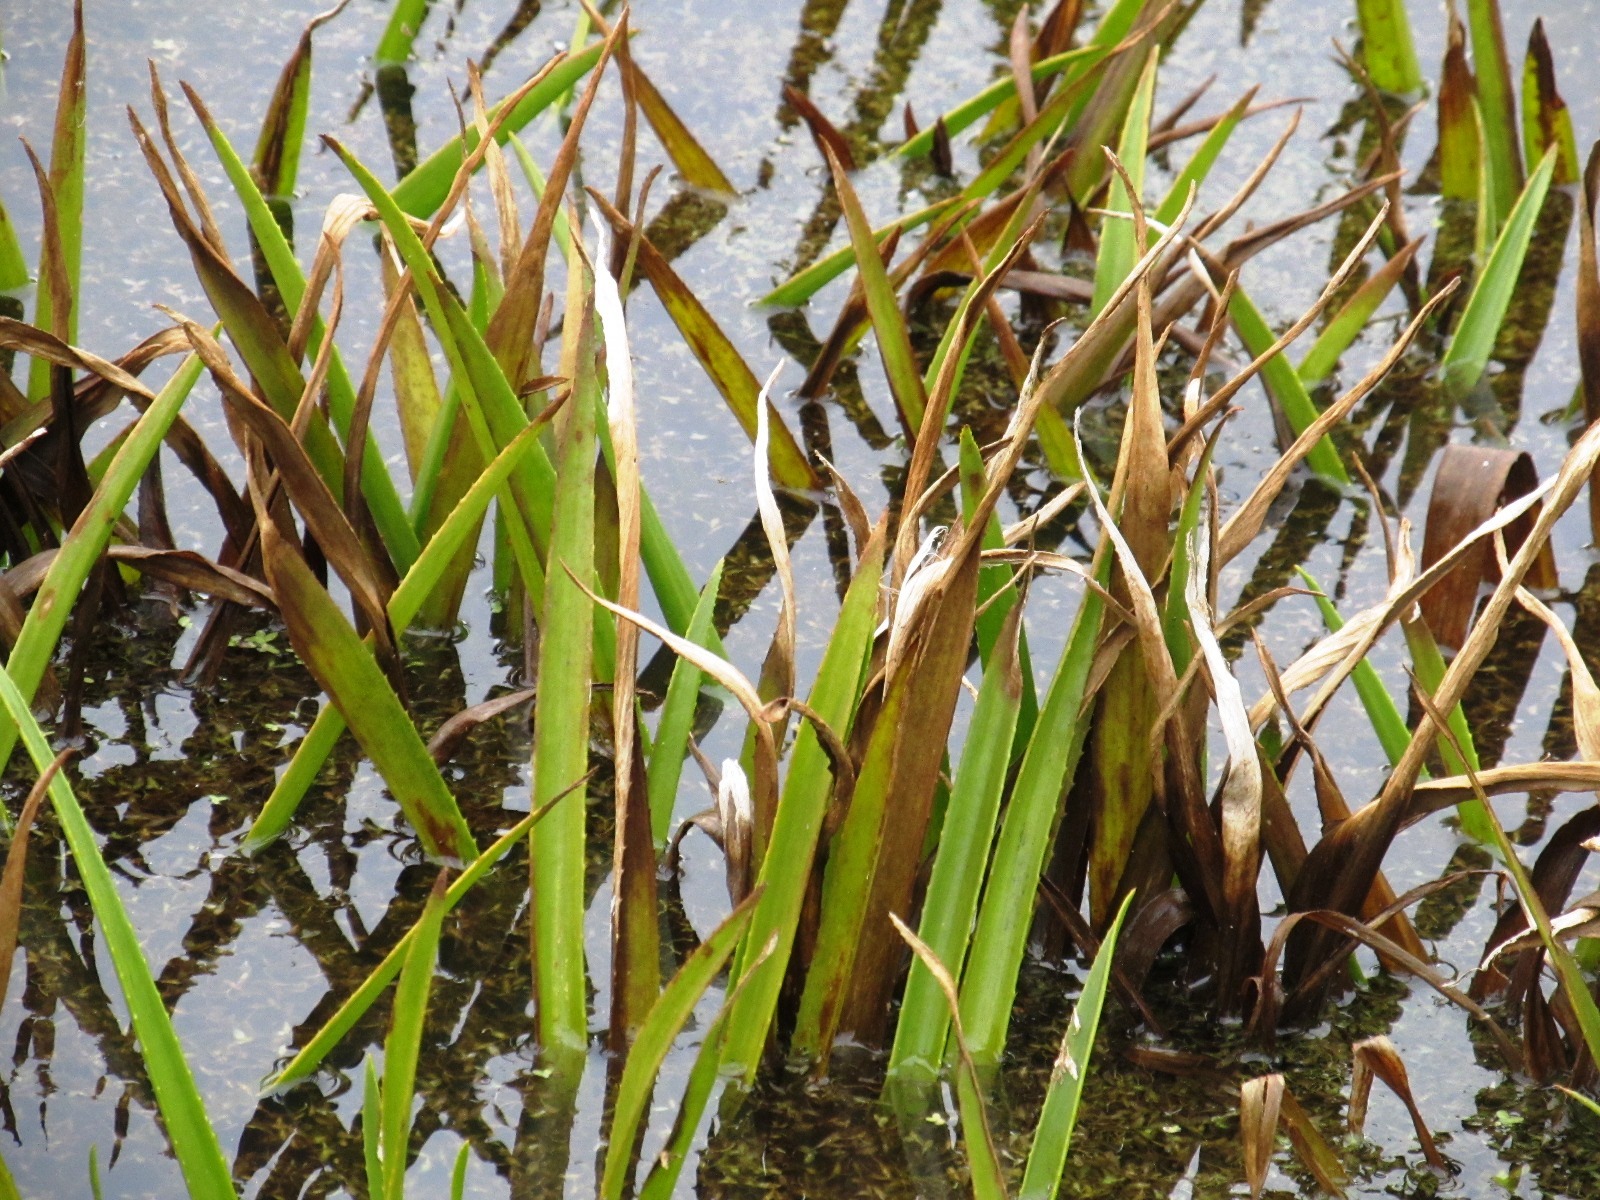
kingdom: Plantae
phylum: Tracheophyta
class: Liliopsida
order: Alismatales
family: Hydrocharitaceae
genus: Stratiotes
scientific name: Stratiotes aloides
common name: Water-soldier
